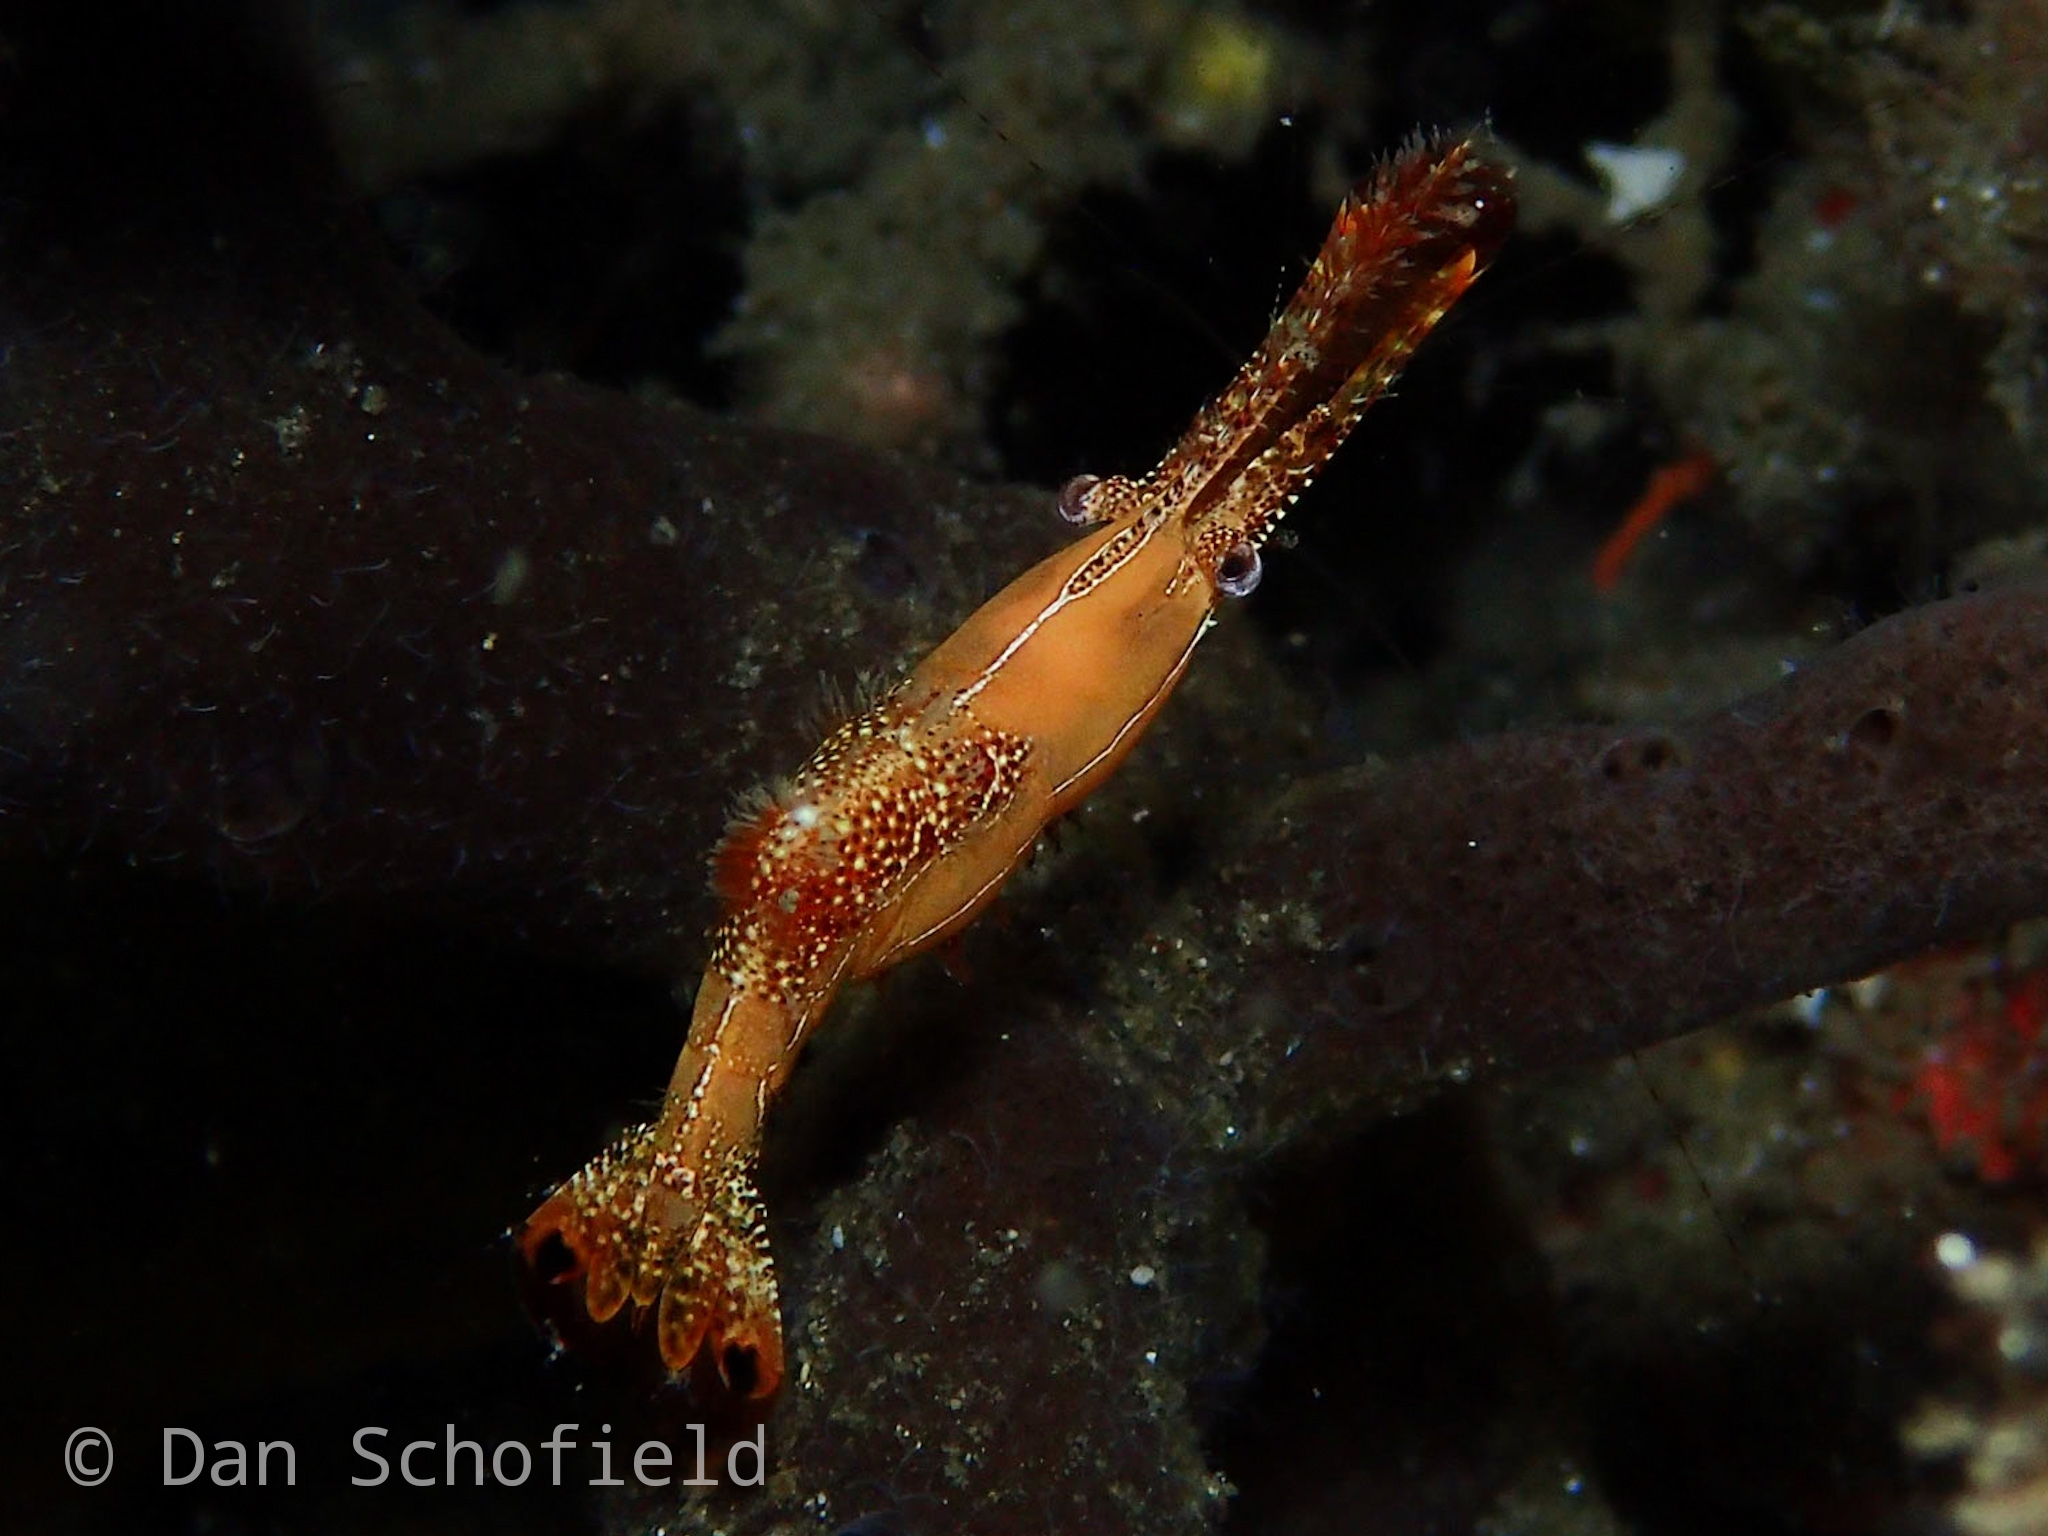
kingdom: Animalia
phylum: Arthropoda
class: Malacostraca
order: Decapoda
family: Palaemonidae
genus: Leander
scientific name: Leander plumosus
